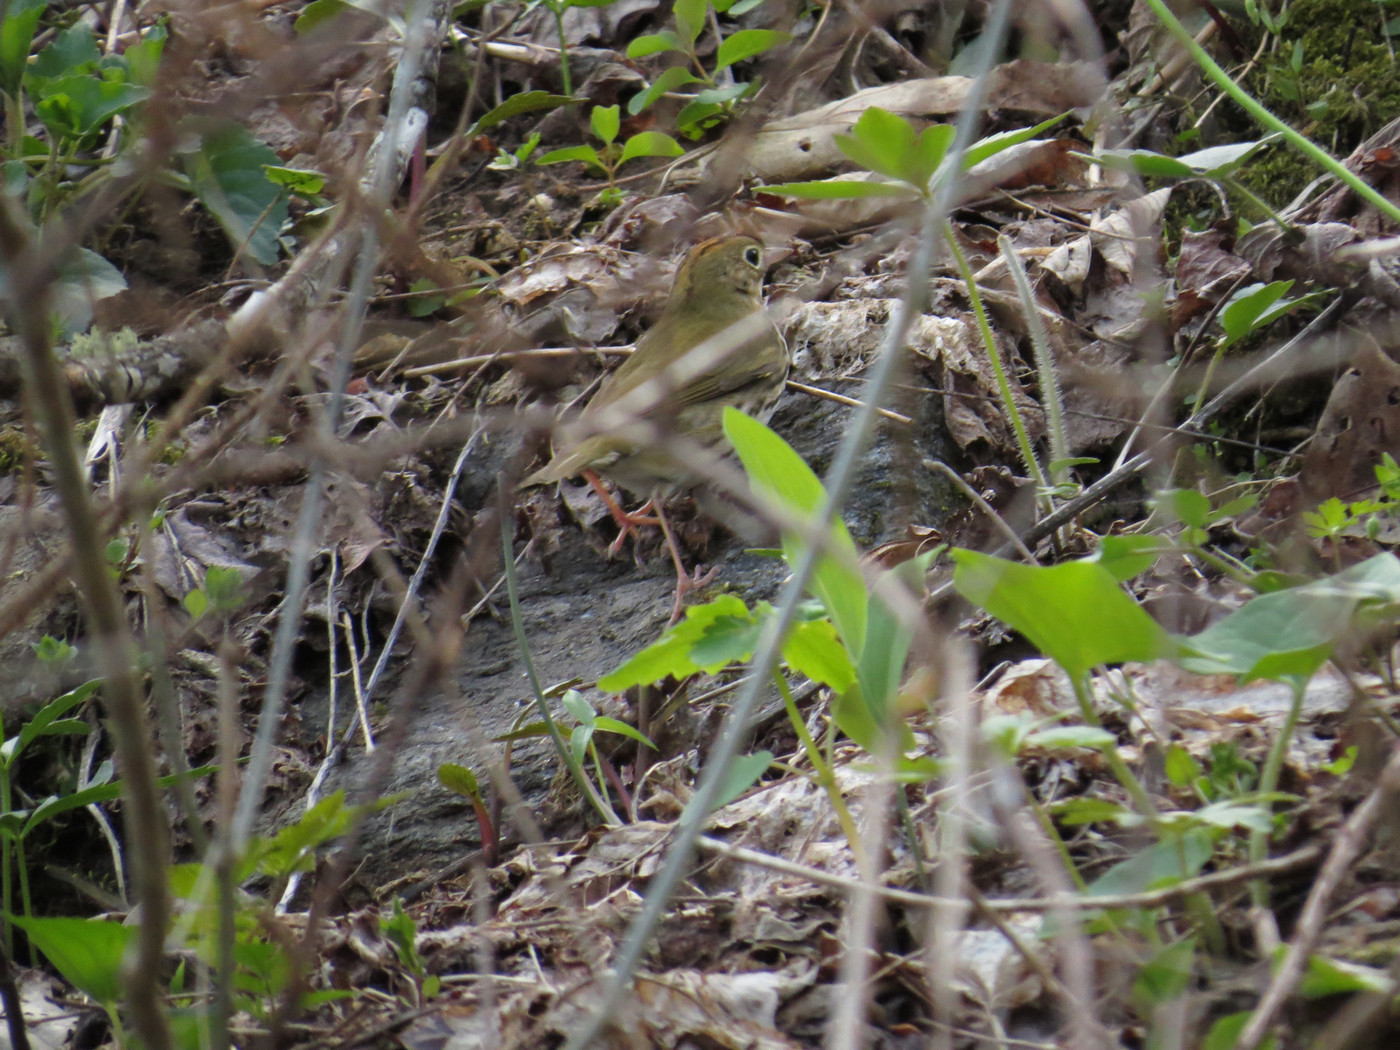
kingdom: Animalia
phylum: Chordata
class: Aves
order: Passeriformes
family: Parulidae
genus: Seiurus
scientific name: Seiurus aurocapilla
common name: Ovenbird
